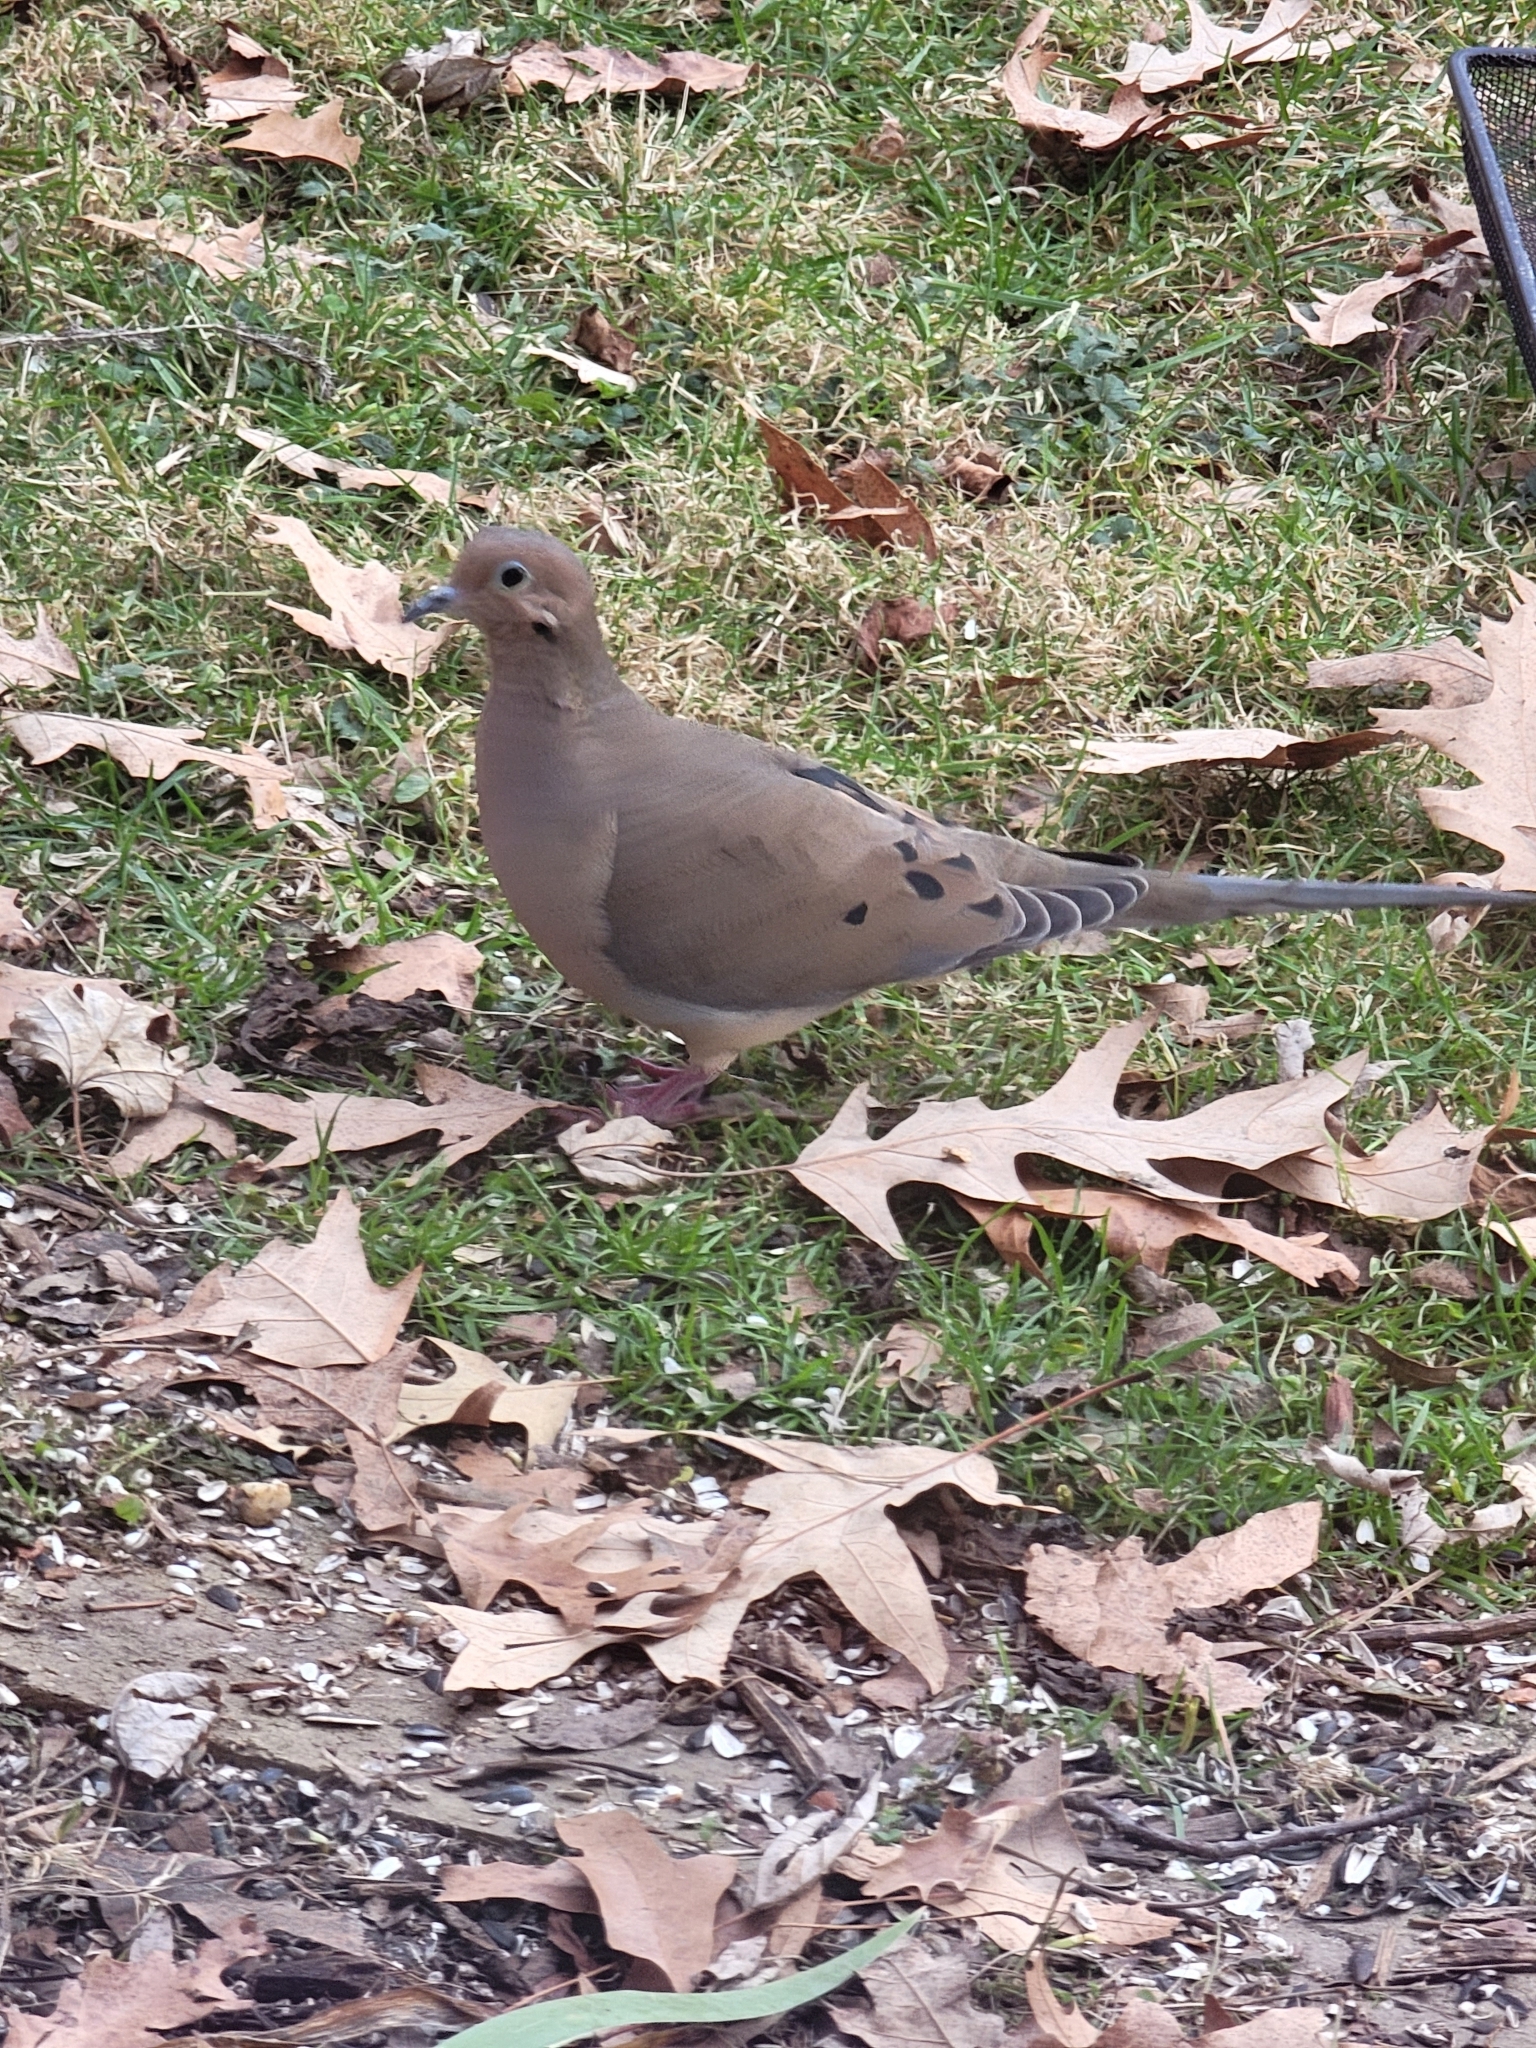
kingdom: Animalia
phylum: Chordata
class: Aves
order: Columbiformes
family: Columbidae
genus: Zenaida
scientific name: Zenaida macroura
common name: Mourning dove
